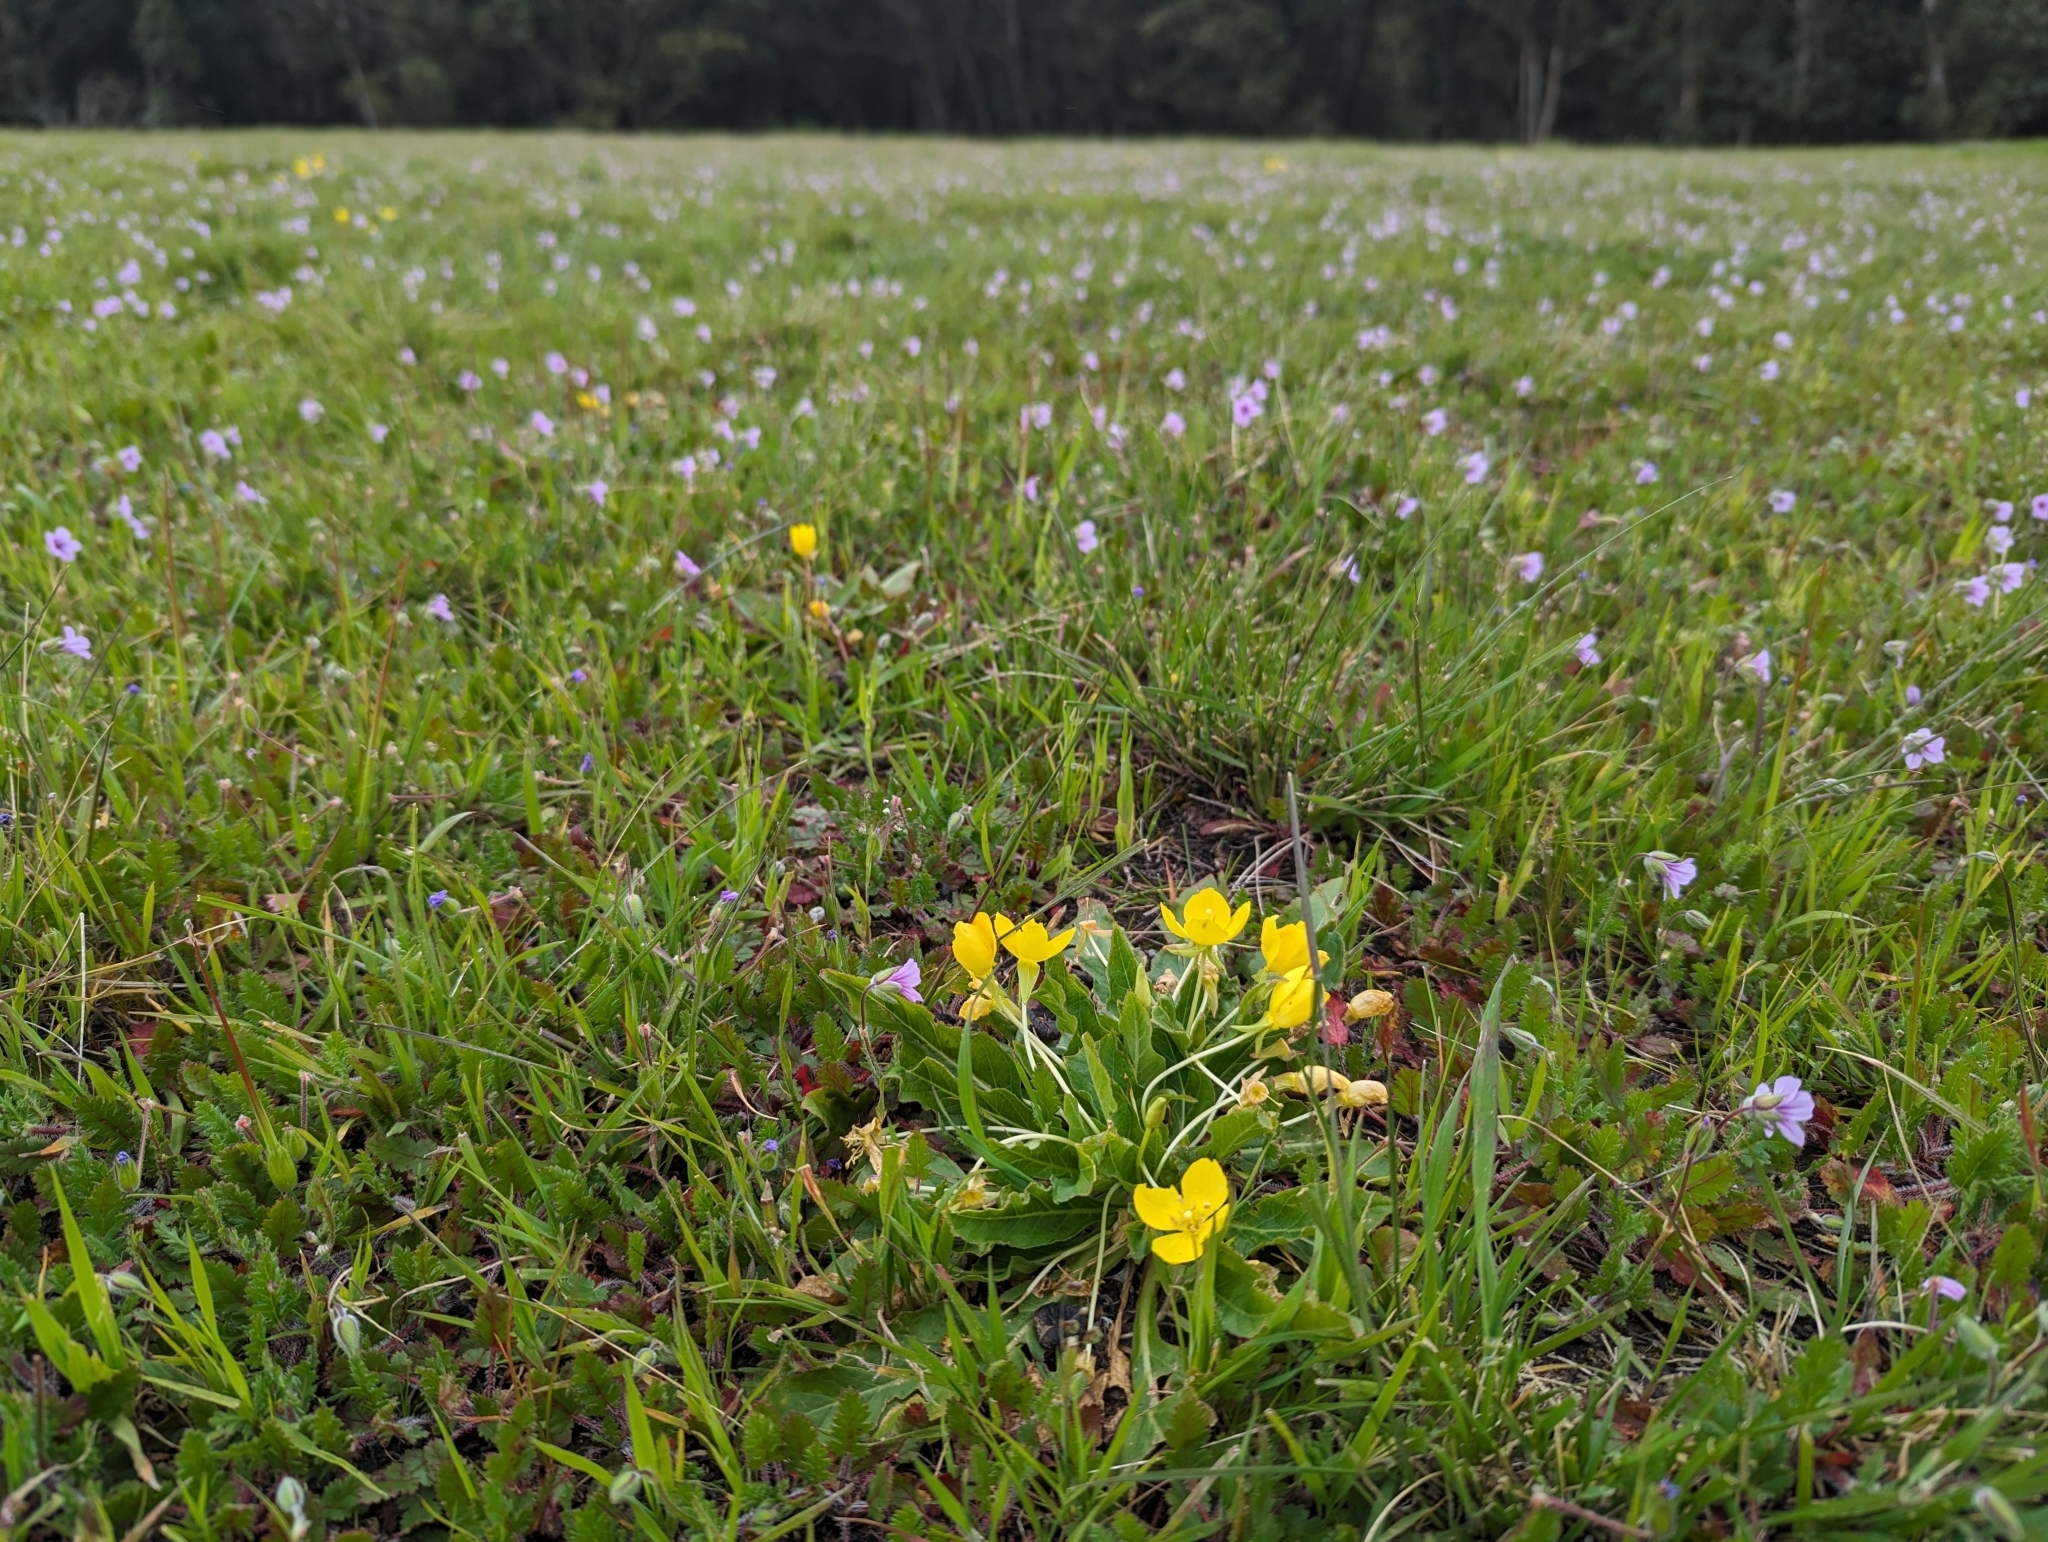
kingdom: Plantae
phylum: Tracheophyta
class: Magnoliopsida
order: Myrtales
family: Onagraceae
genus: Taraxia
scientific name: Taraxia ovata
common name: Goldeneggs
